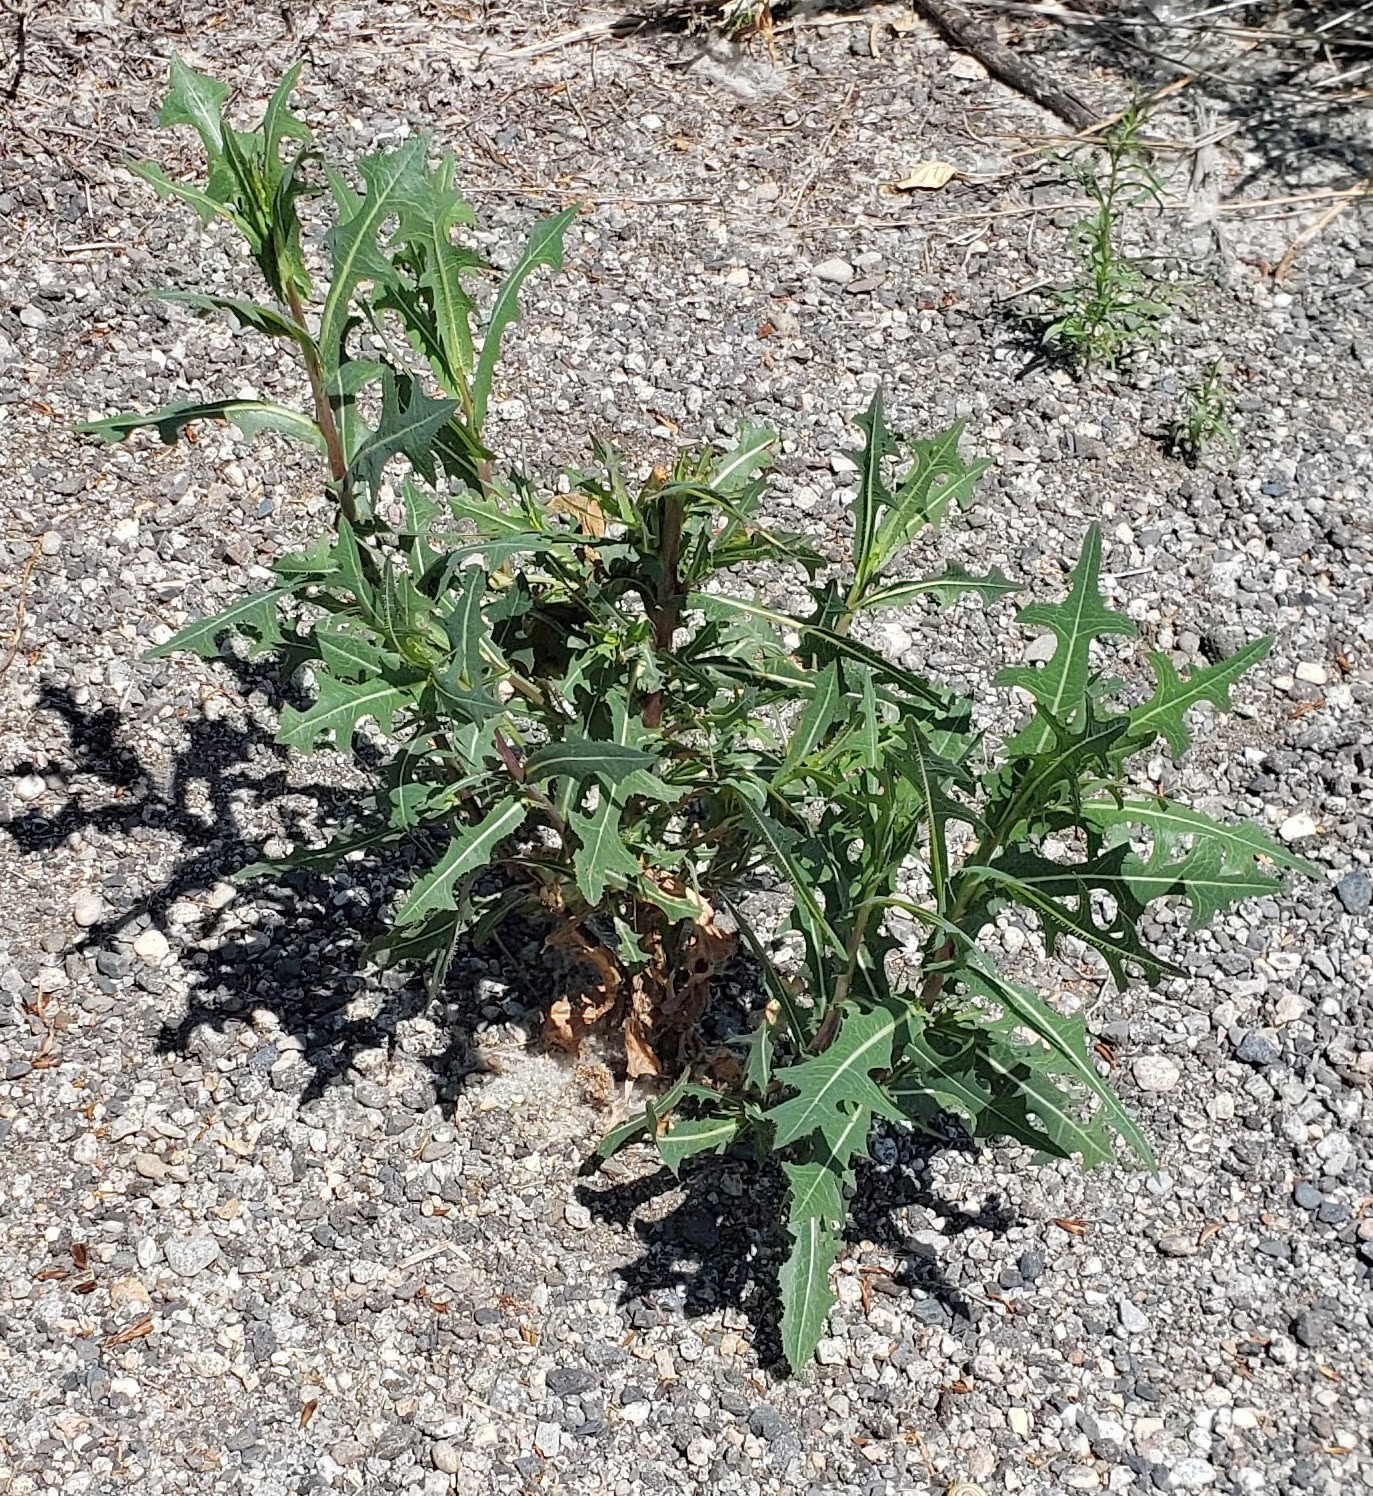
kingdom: Plantae
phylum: Tracheophyta
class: Magnoliopsida
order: Asterales
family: Asteraceae
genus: Lactuca
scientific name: Lactuca serriola
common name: Prickly lettuce
